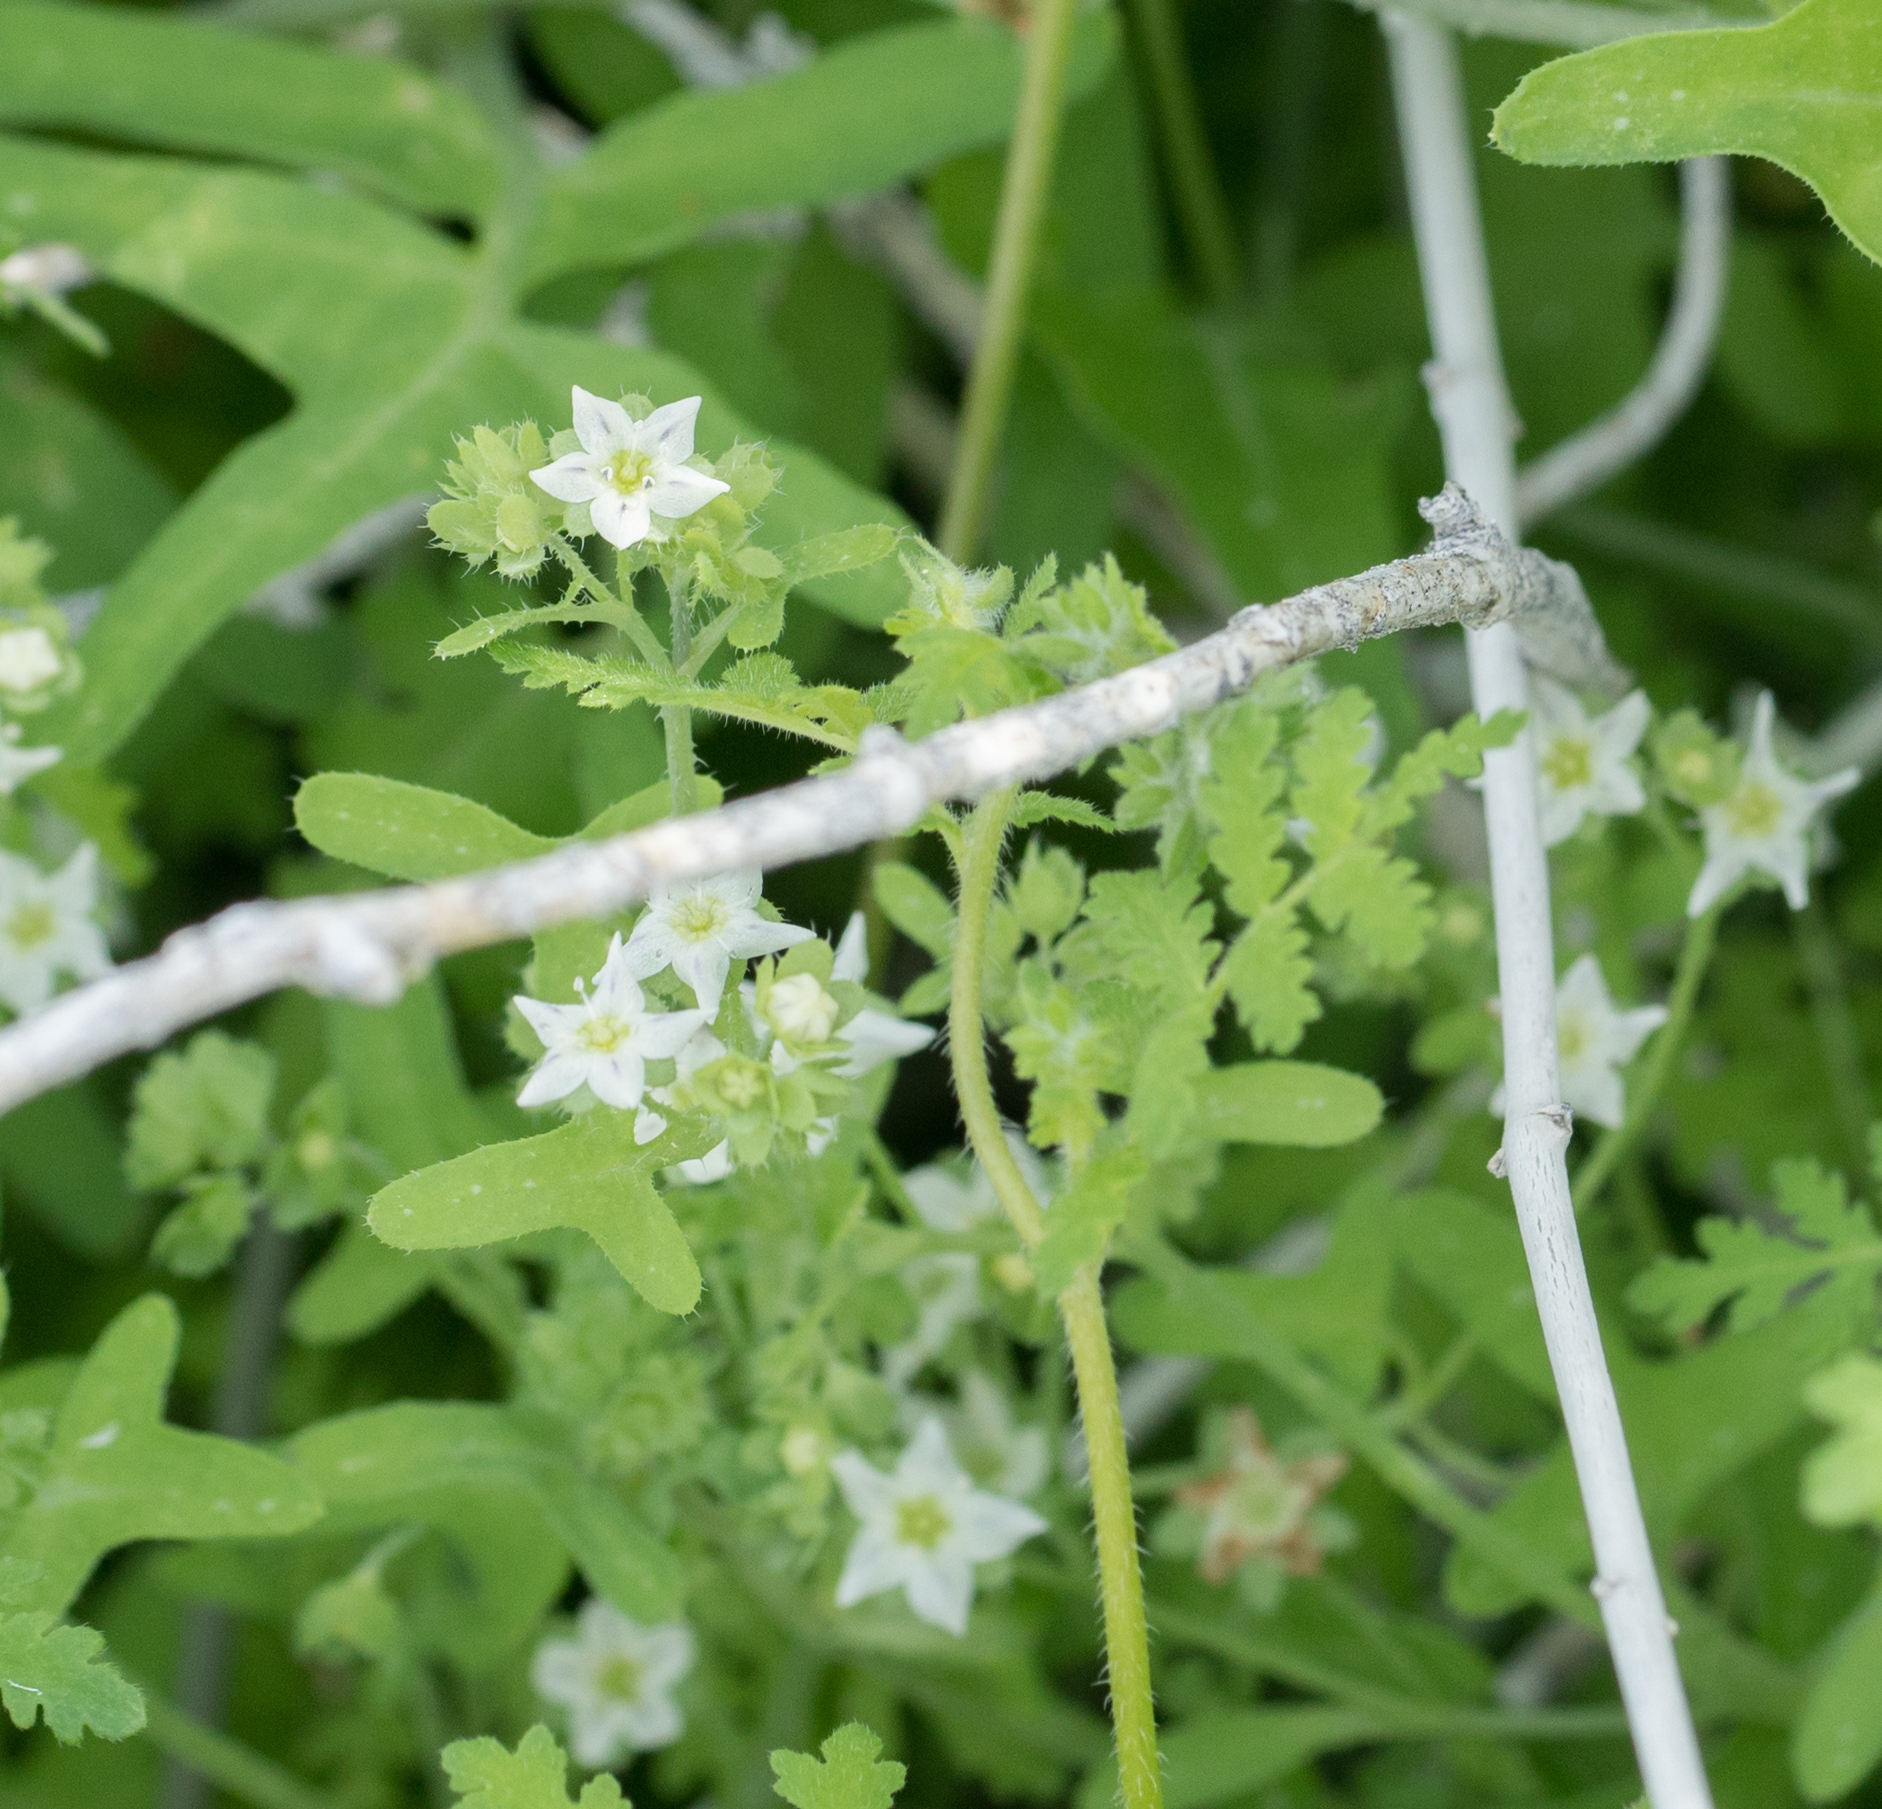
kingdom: Plantae
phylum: Tracheophyta
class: Magnoliopsida
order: Boraginales
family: Hydrophyllaceae
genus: Pholistoma
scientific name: Pholistoma membranaceum
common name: White fiesta-flower
